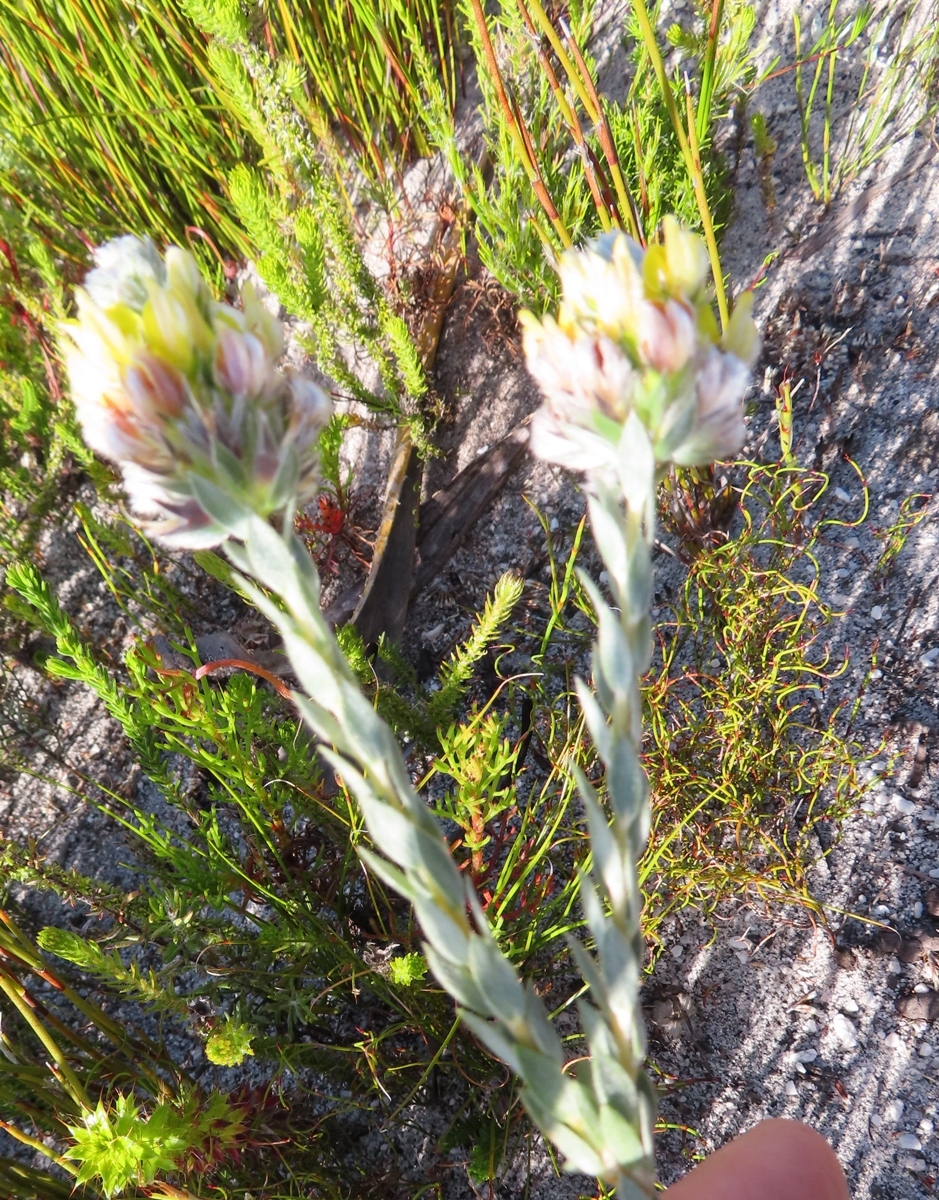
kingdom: Plantae
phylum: Tracheophyta
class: Magnoliopsida
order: Fabales
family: Fabaceae
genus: Aspalathus
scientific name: Aspalathus sericea
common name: Silky pea
